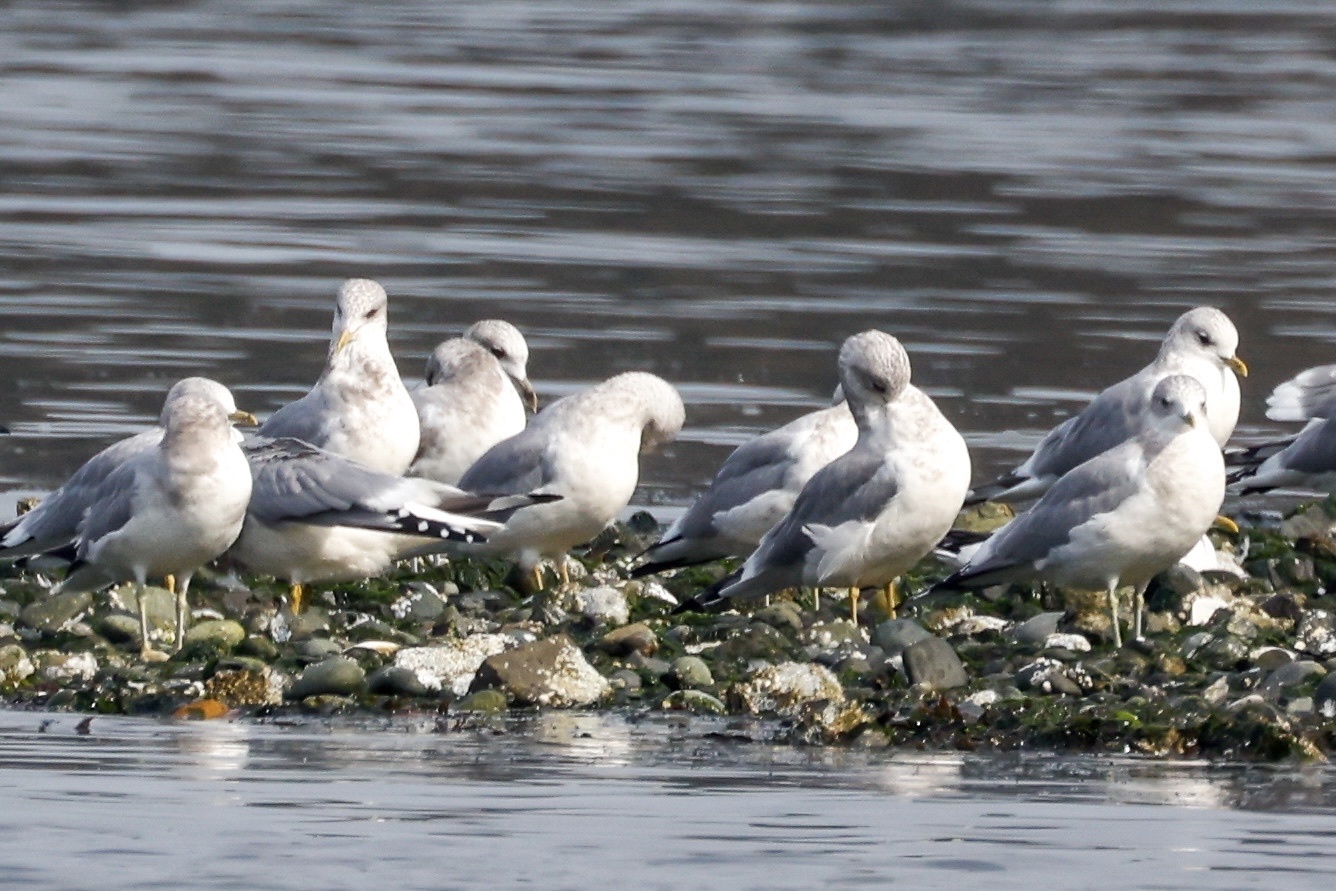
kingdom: Animalia
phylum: Chordata
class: Aves
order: Charadriiformes
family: Laridae
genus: Larus
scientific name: Larus brachyrhynchus
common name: Short-billed gull
